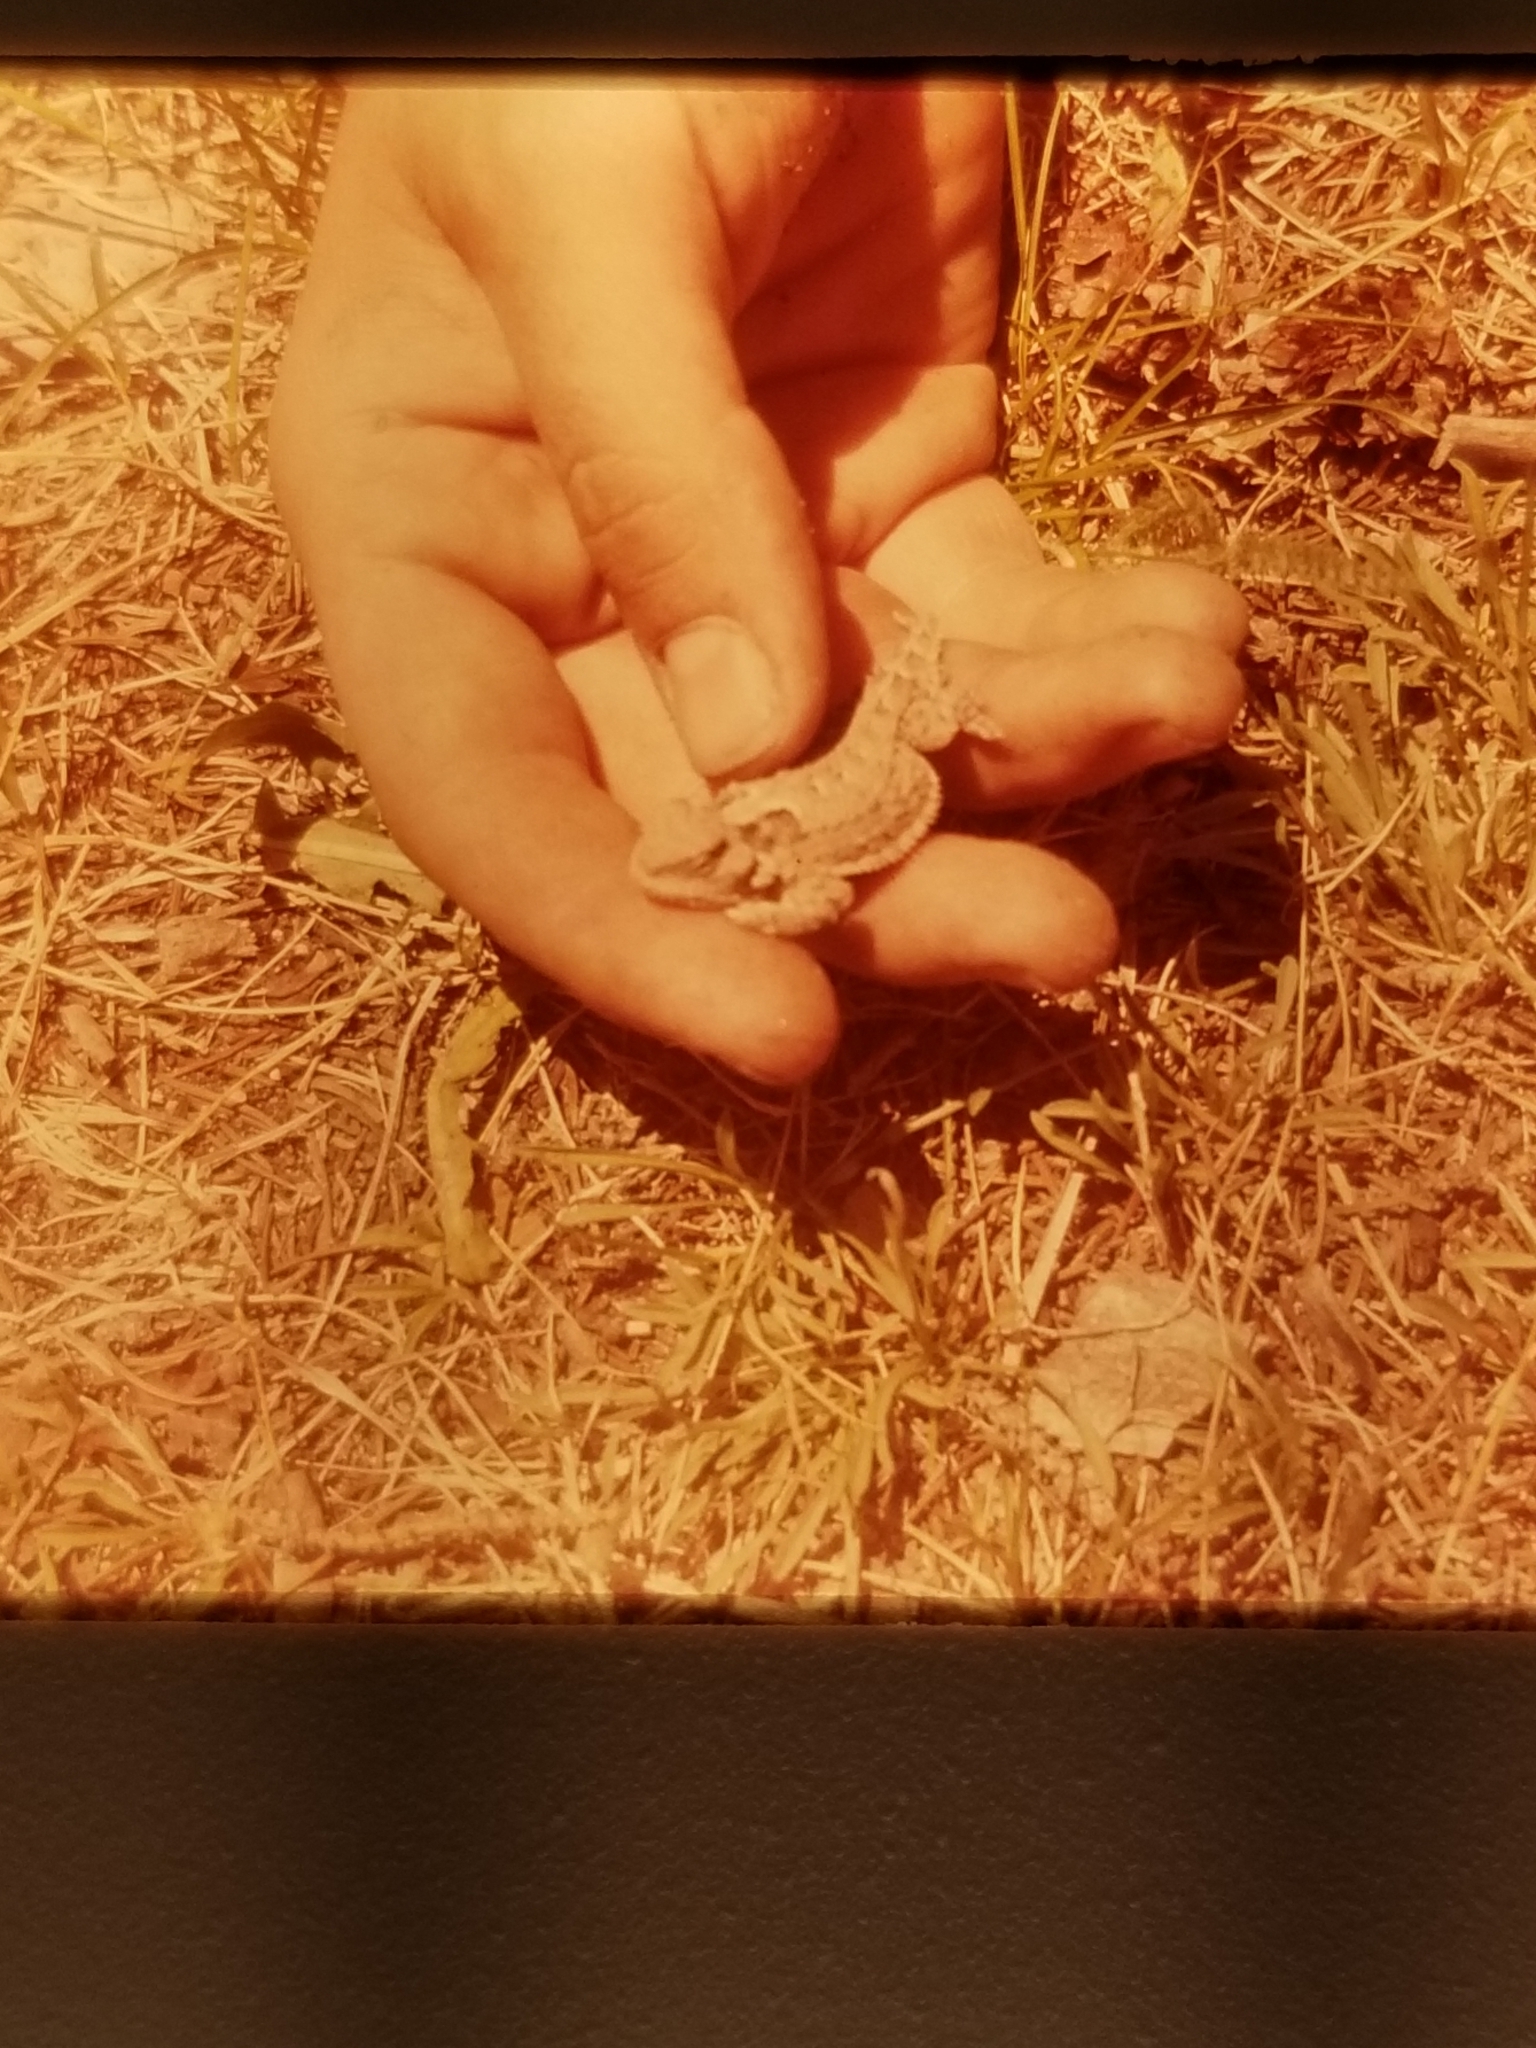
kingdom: Animalia
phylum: Chordata
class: Squamata
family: Phrynosomatidae
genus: Phrynosoma
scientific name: Phrynosoma hernandesi
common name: Greater short-horned lizard
